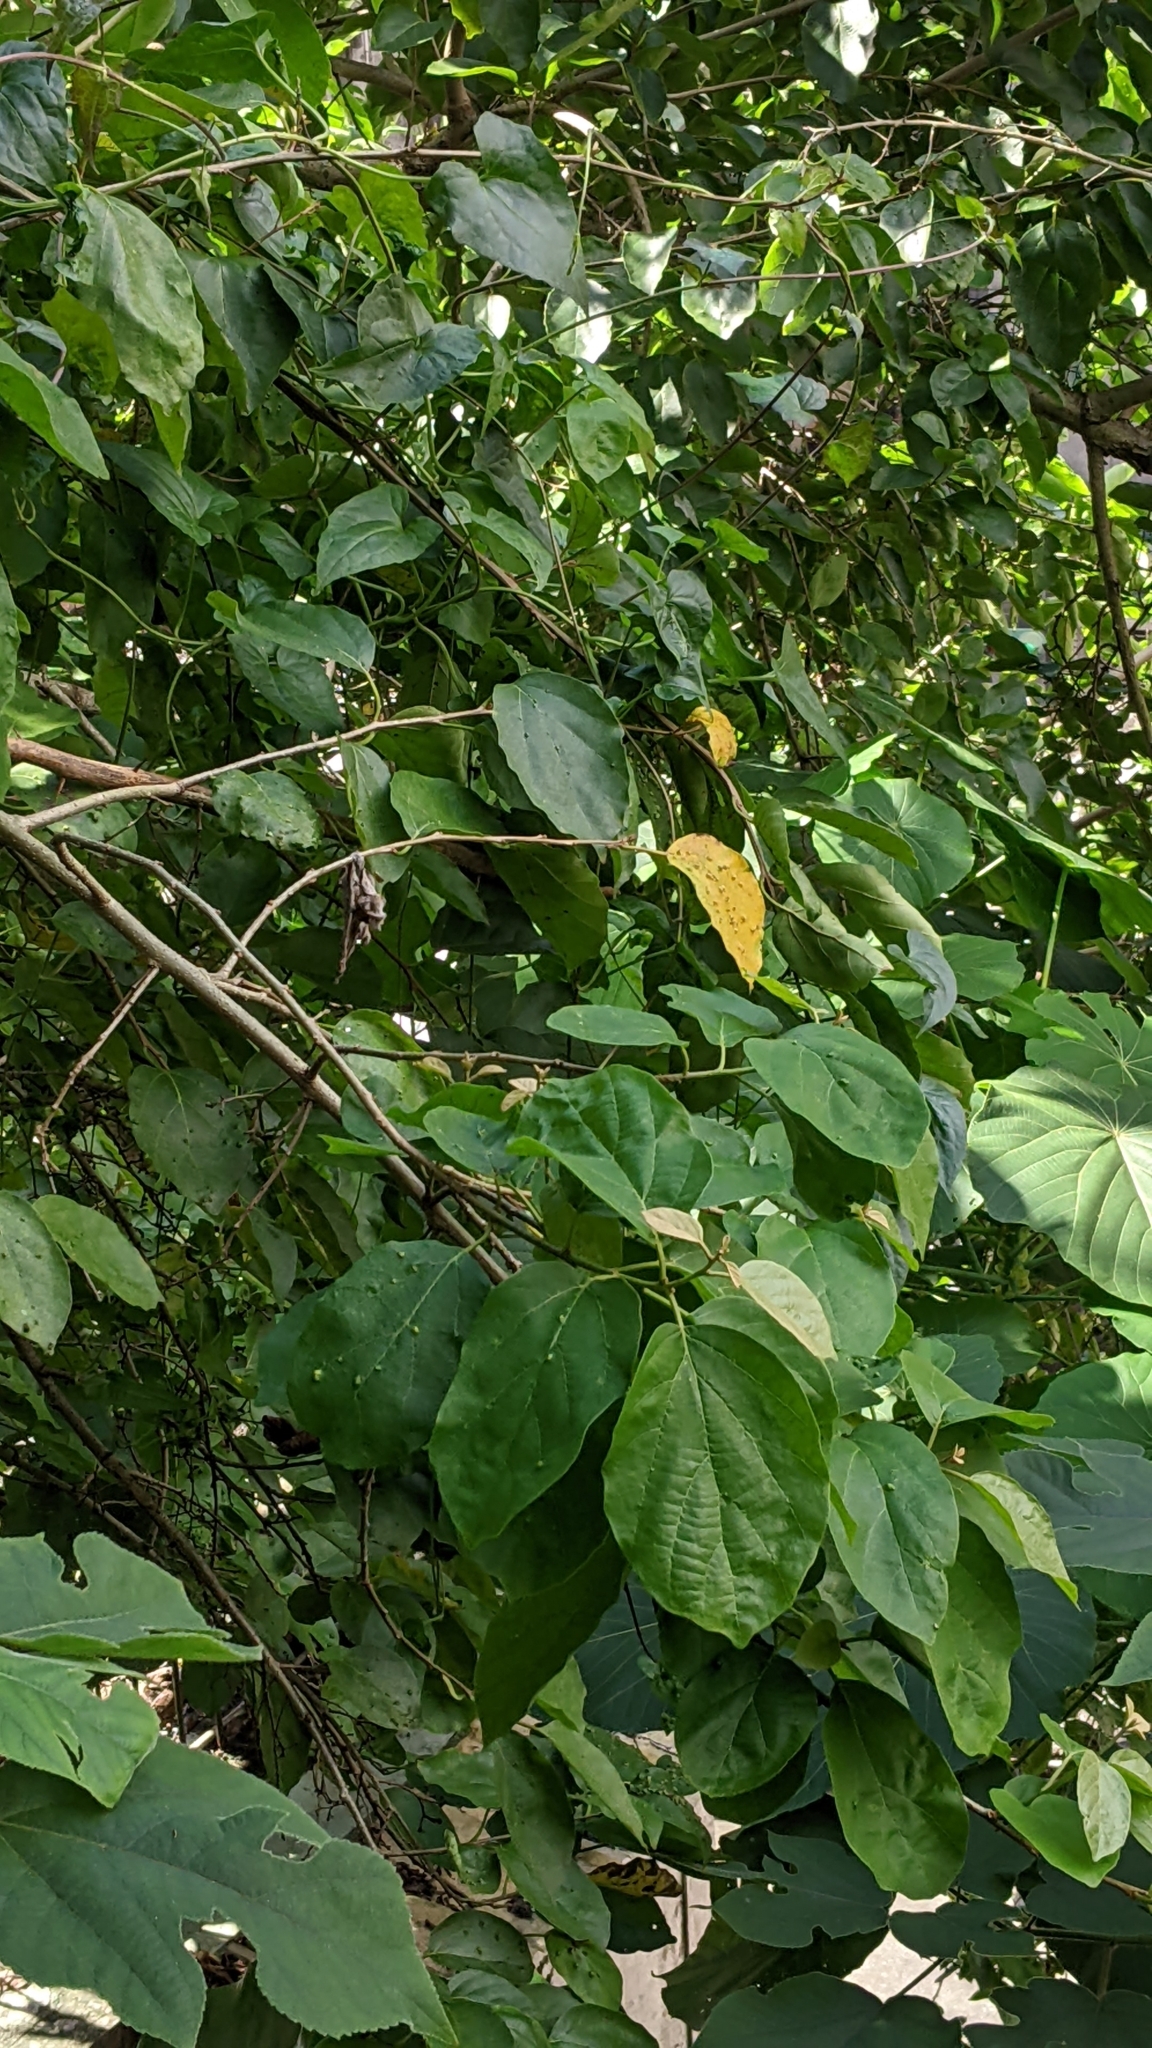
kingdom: Plantae
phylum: Tracheophyta
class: Magnoliopsida
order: Boraginales
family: Cordiaceae
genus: Cordia
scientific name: Cordia dichotoma
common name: Fragrant manjack
